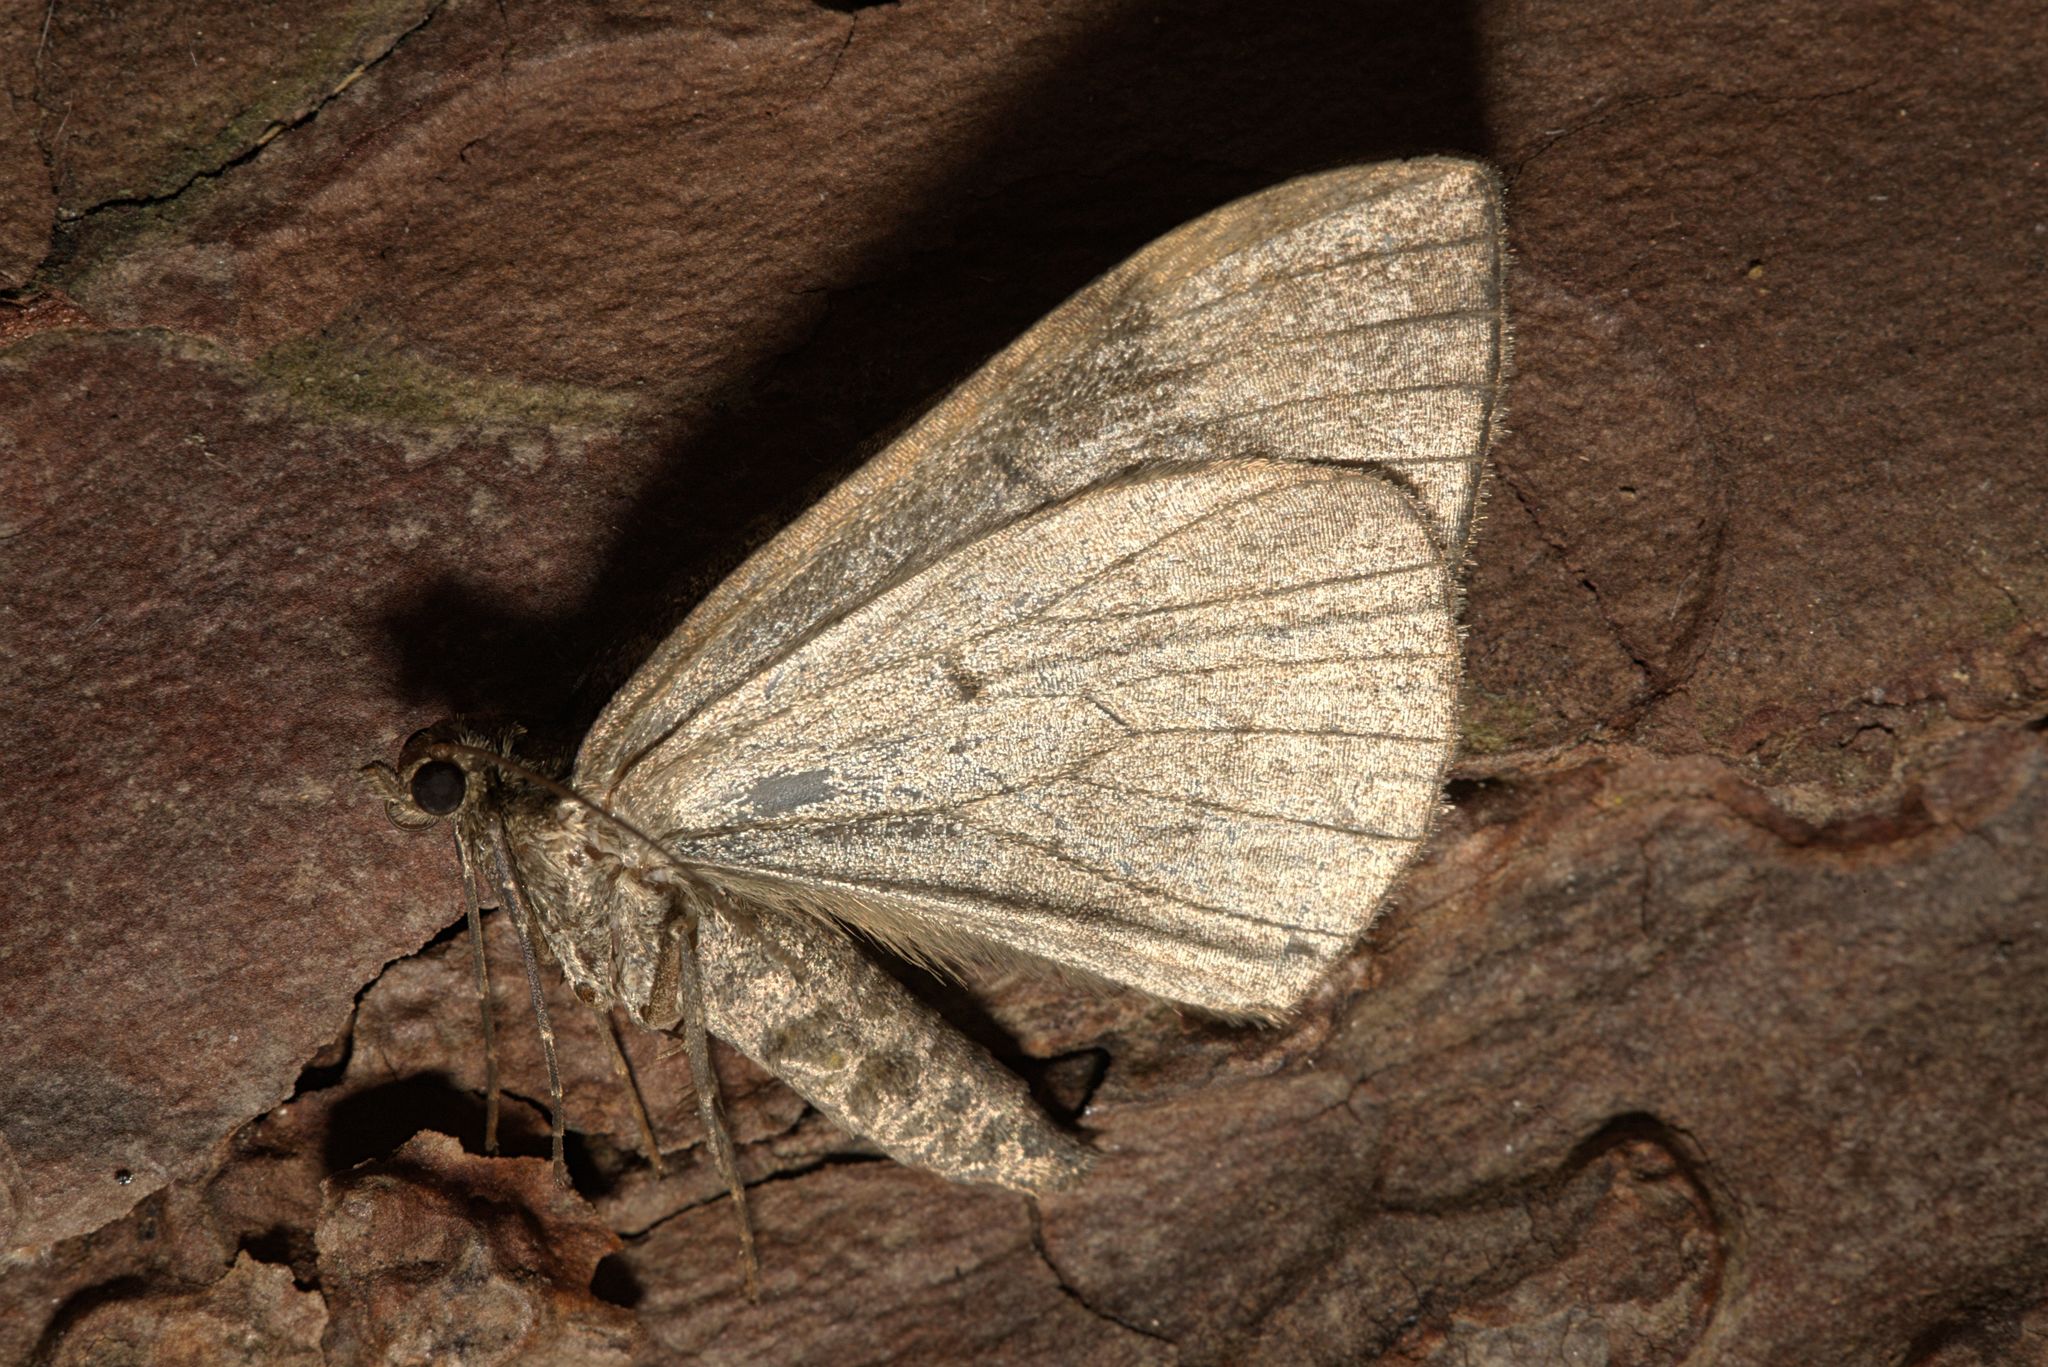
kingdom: Animalia
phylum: Arthropoda
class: Insecta
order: Lepidoptera
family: Geometridae
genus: Dysstroma
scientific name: Dysstroma truncata
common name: Common marbled carpet
